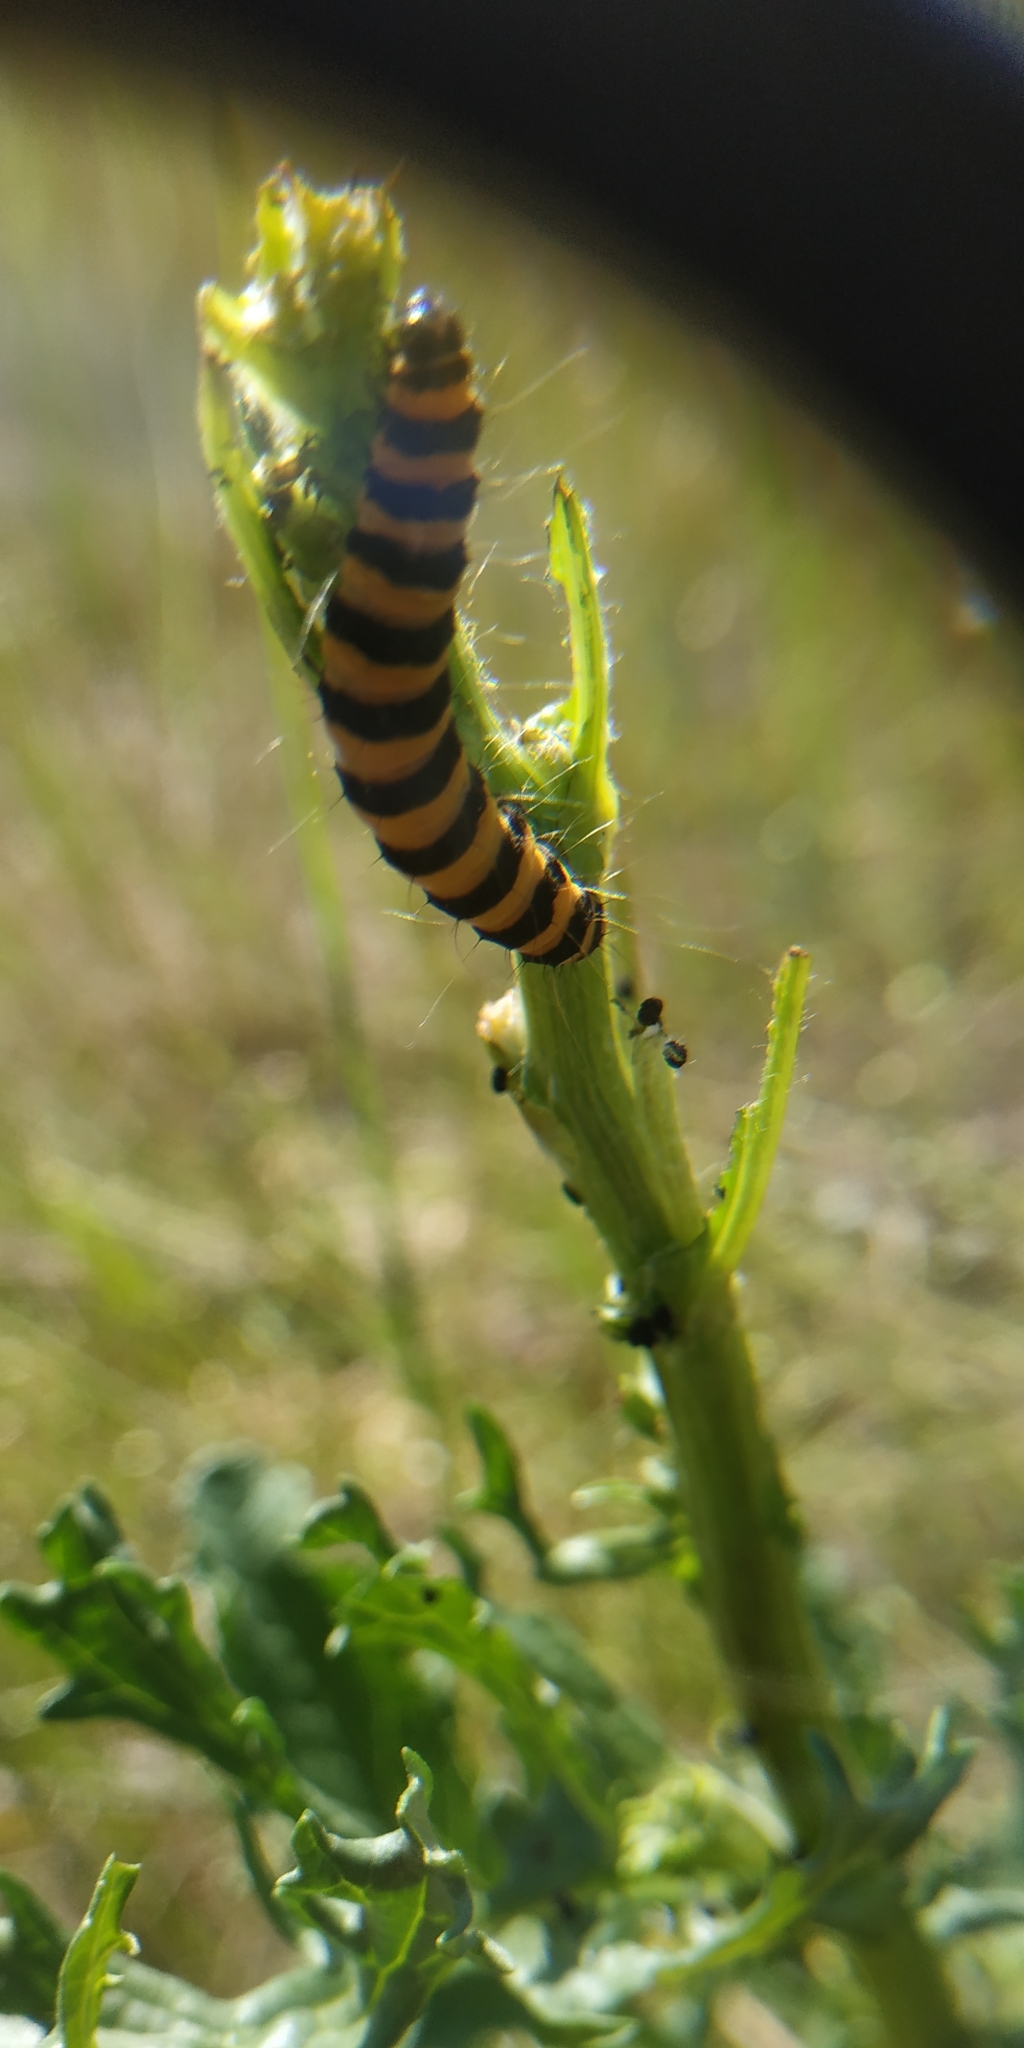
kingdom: Animalia
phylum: Arthropoda
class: Insecta
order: Lepidoptera
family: Erebidae
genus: Tyria
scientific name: Tyria jacobaeae
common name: Cinnabar
